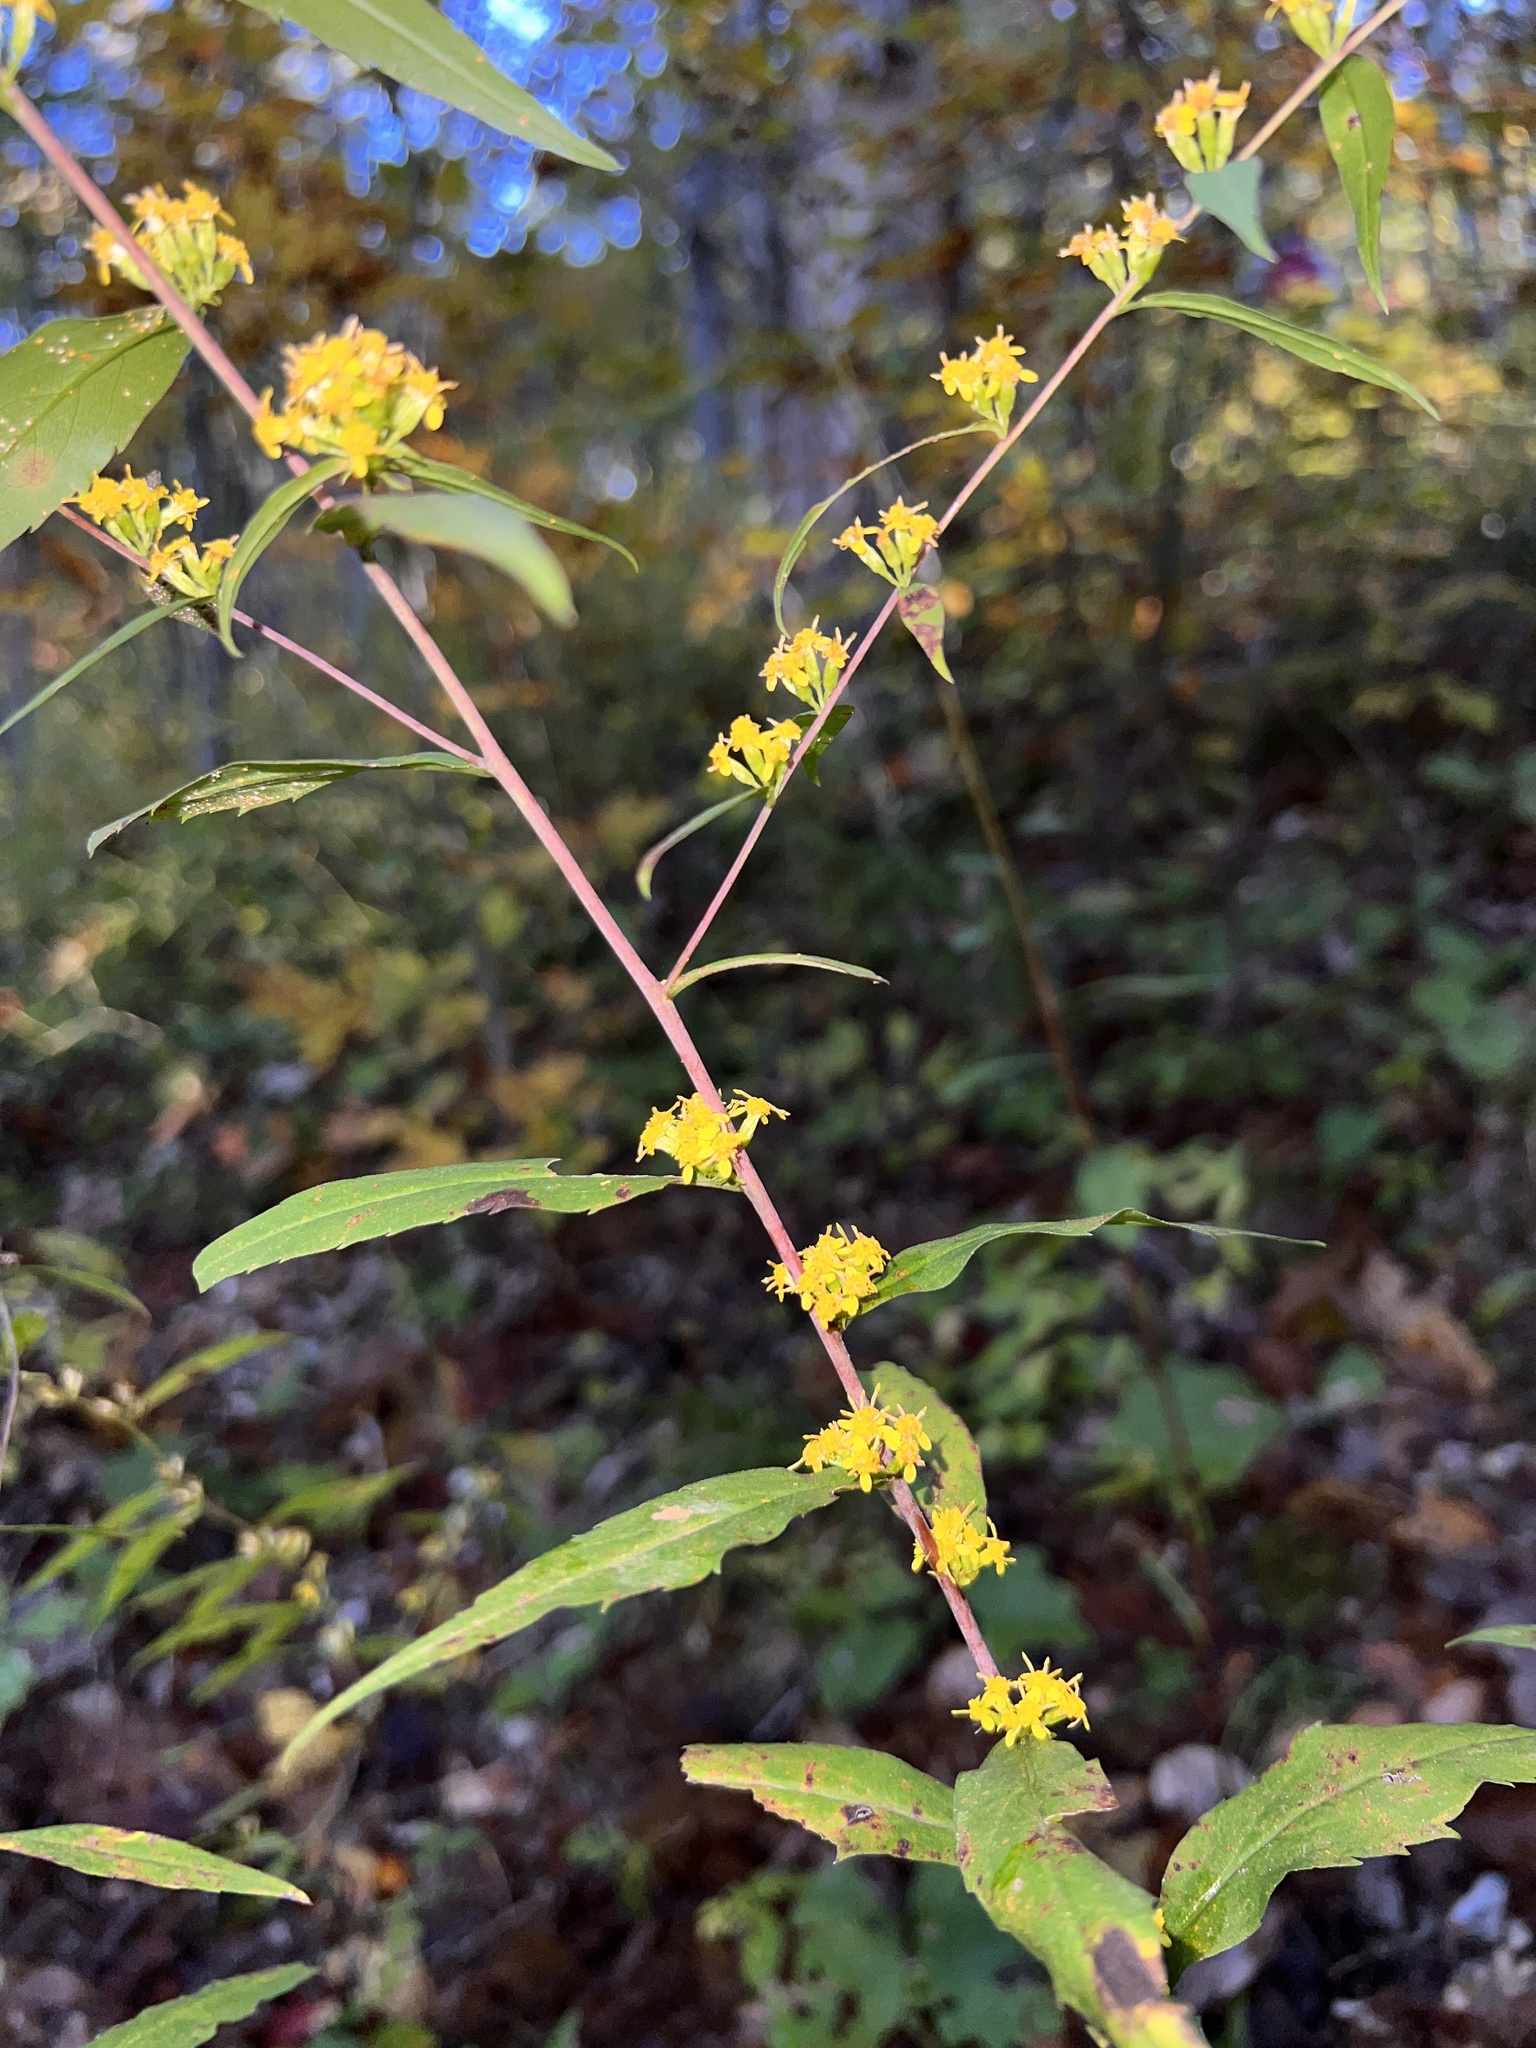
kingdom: Plantae
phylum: Tracheophyta
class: Magnoliopsida
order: Asterales
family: Asteraceae
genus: Solidago
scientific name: Solidago caesia
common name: Woodland goldenrod
